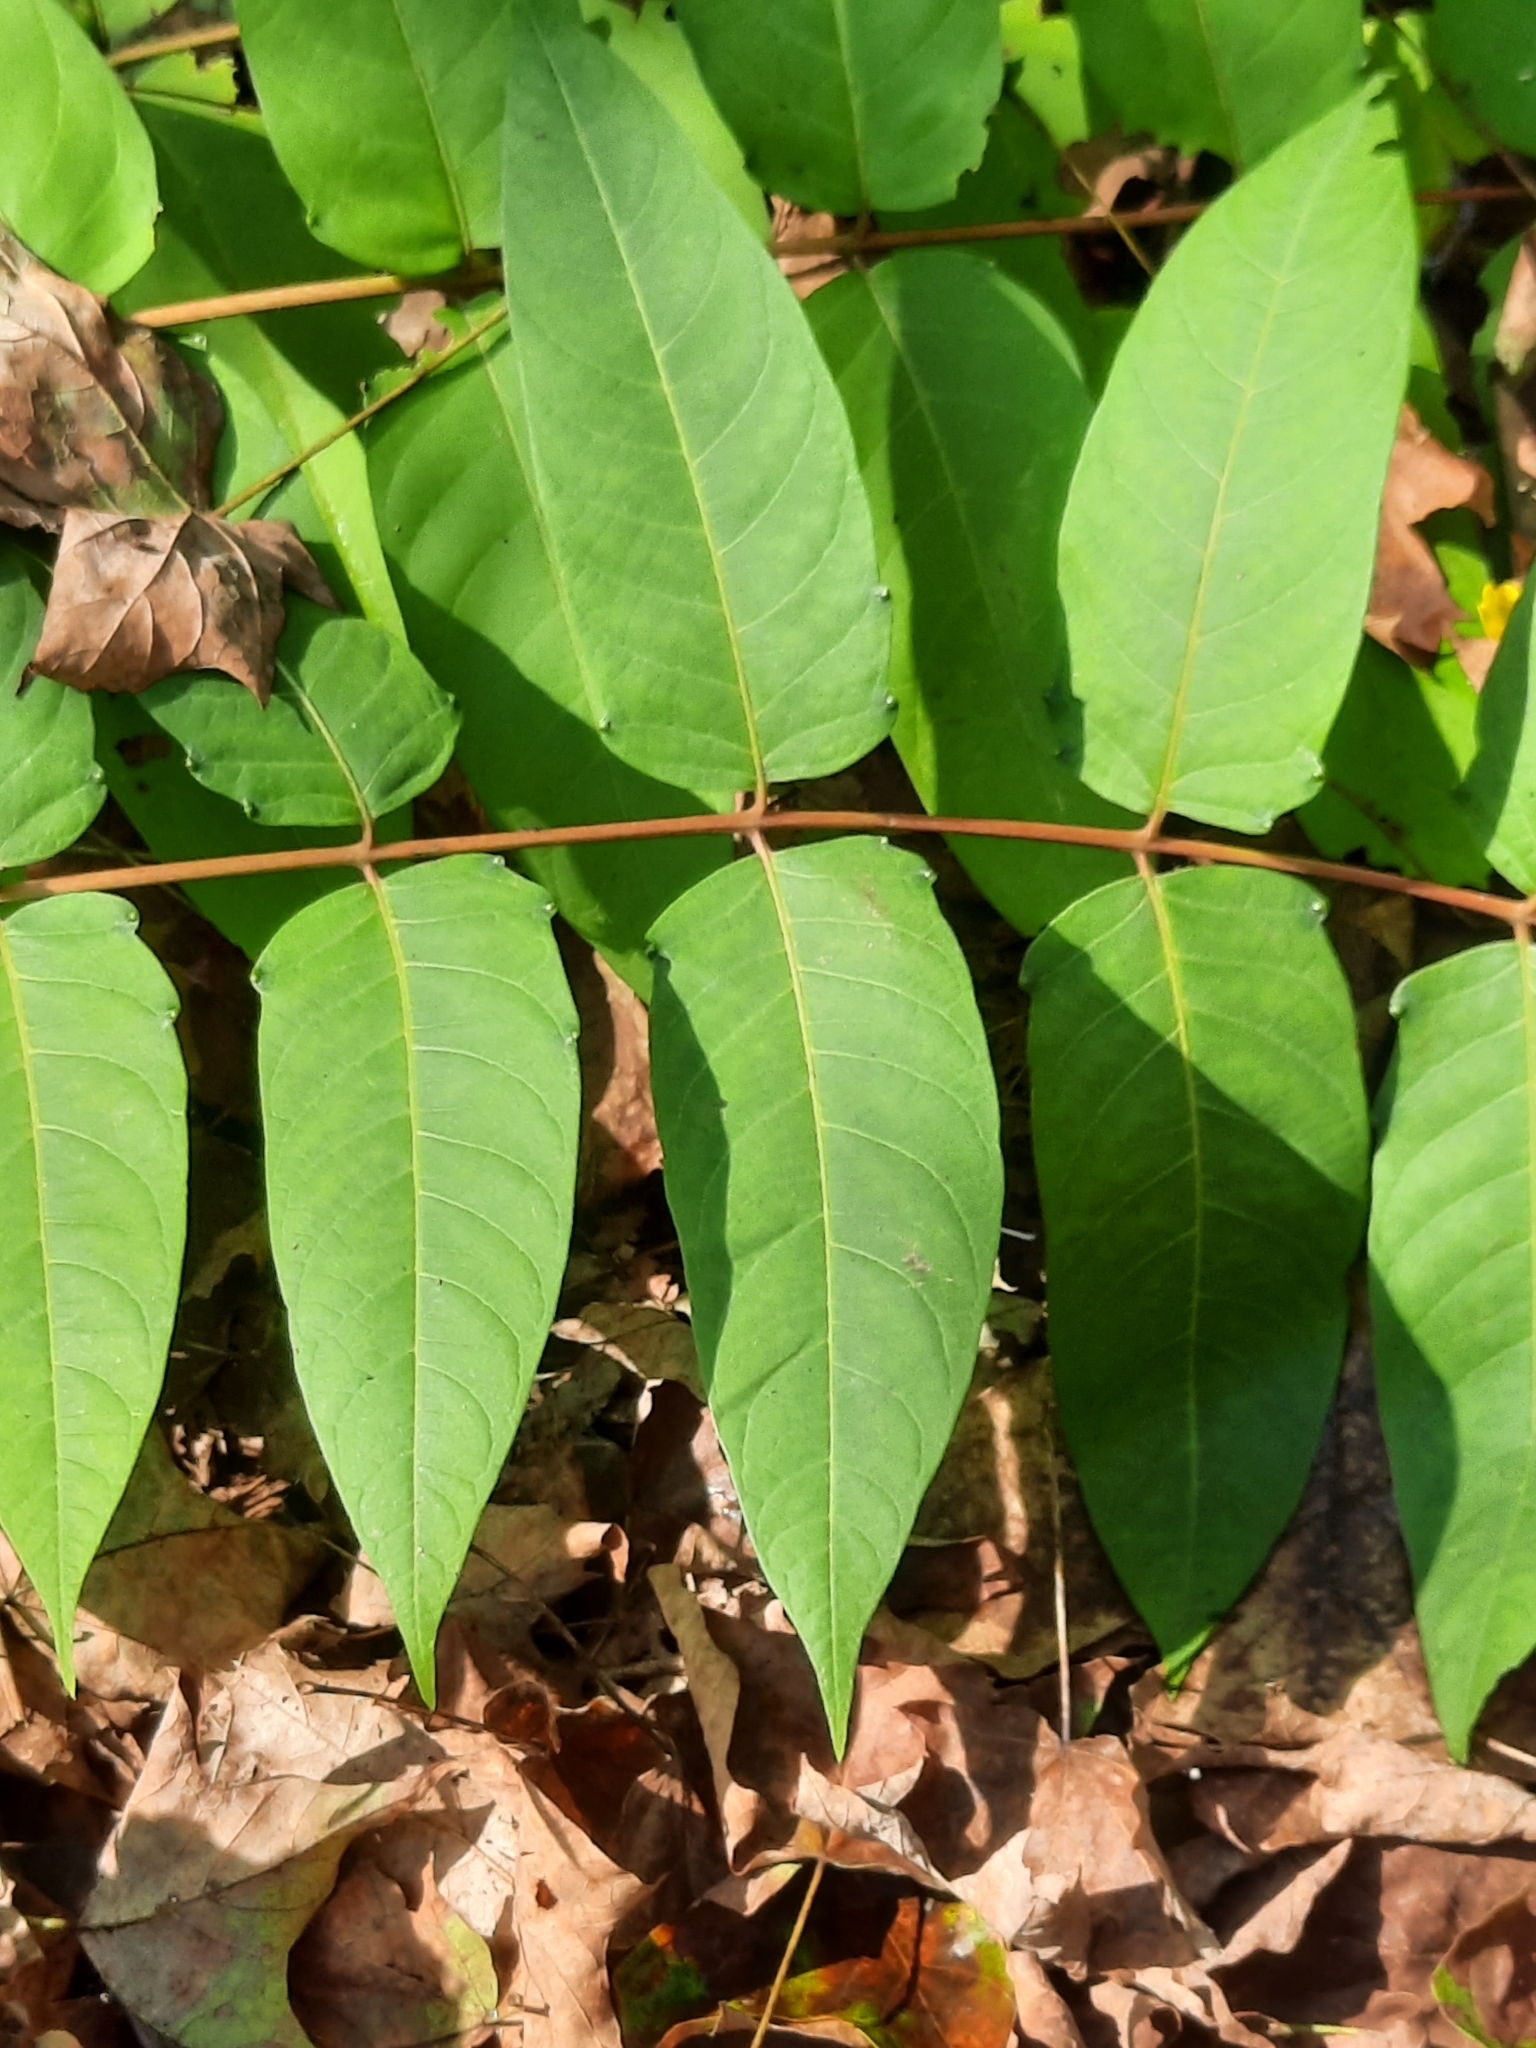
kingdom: Plantae
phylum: Tracheophyta
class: Magnoliopsida
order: Sapindales
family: Simaroubaceae
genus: Ailanthus
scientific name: Ailanthus altissima
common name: Tree-of-heaven
